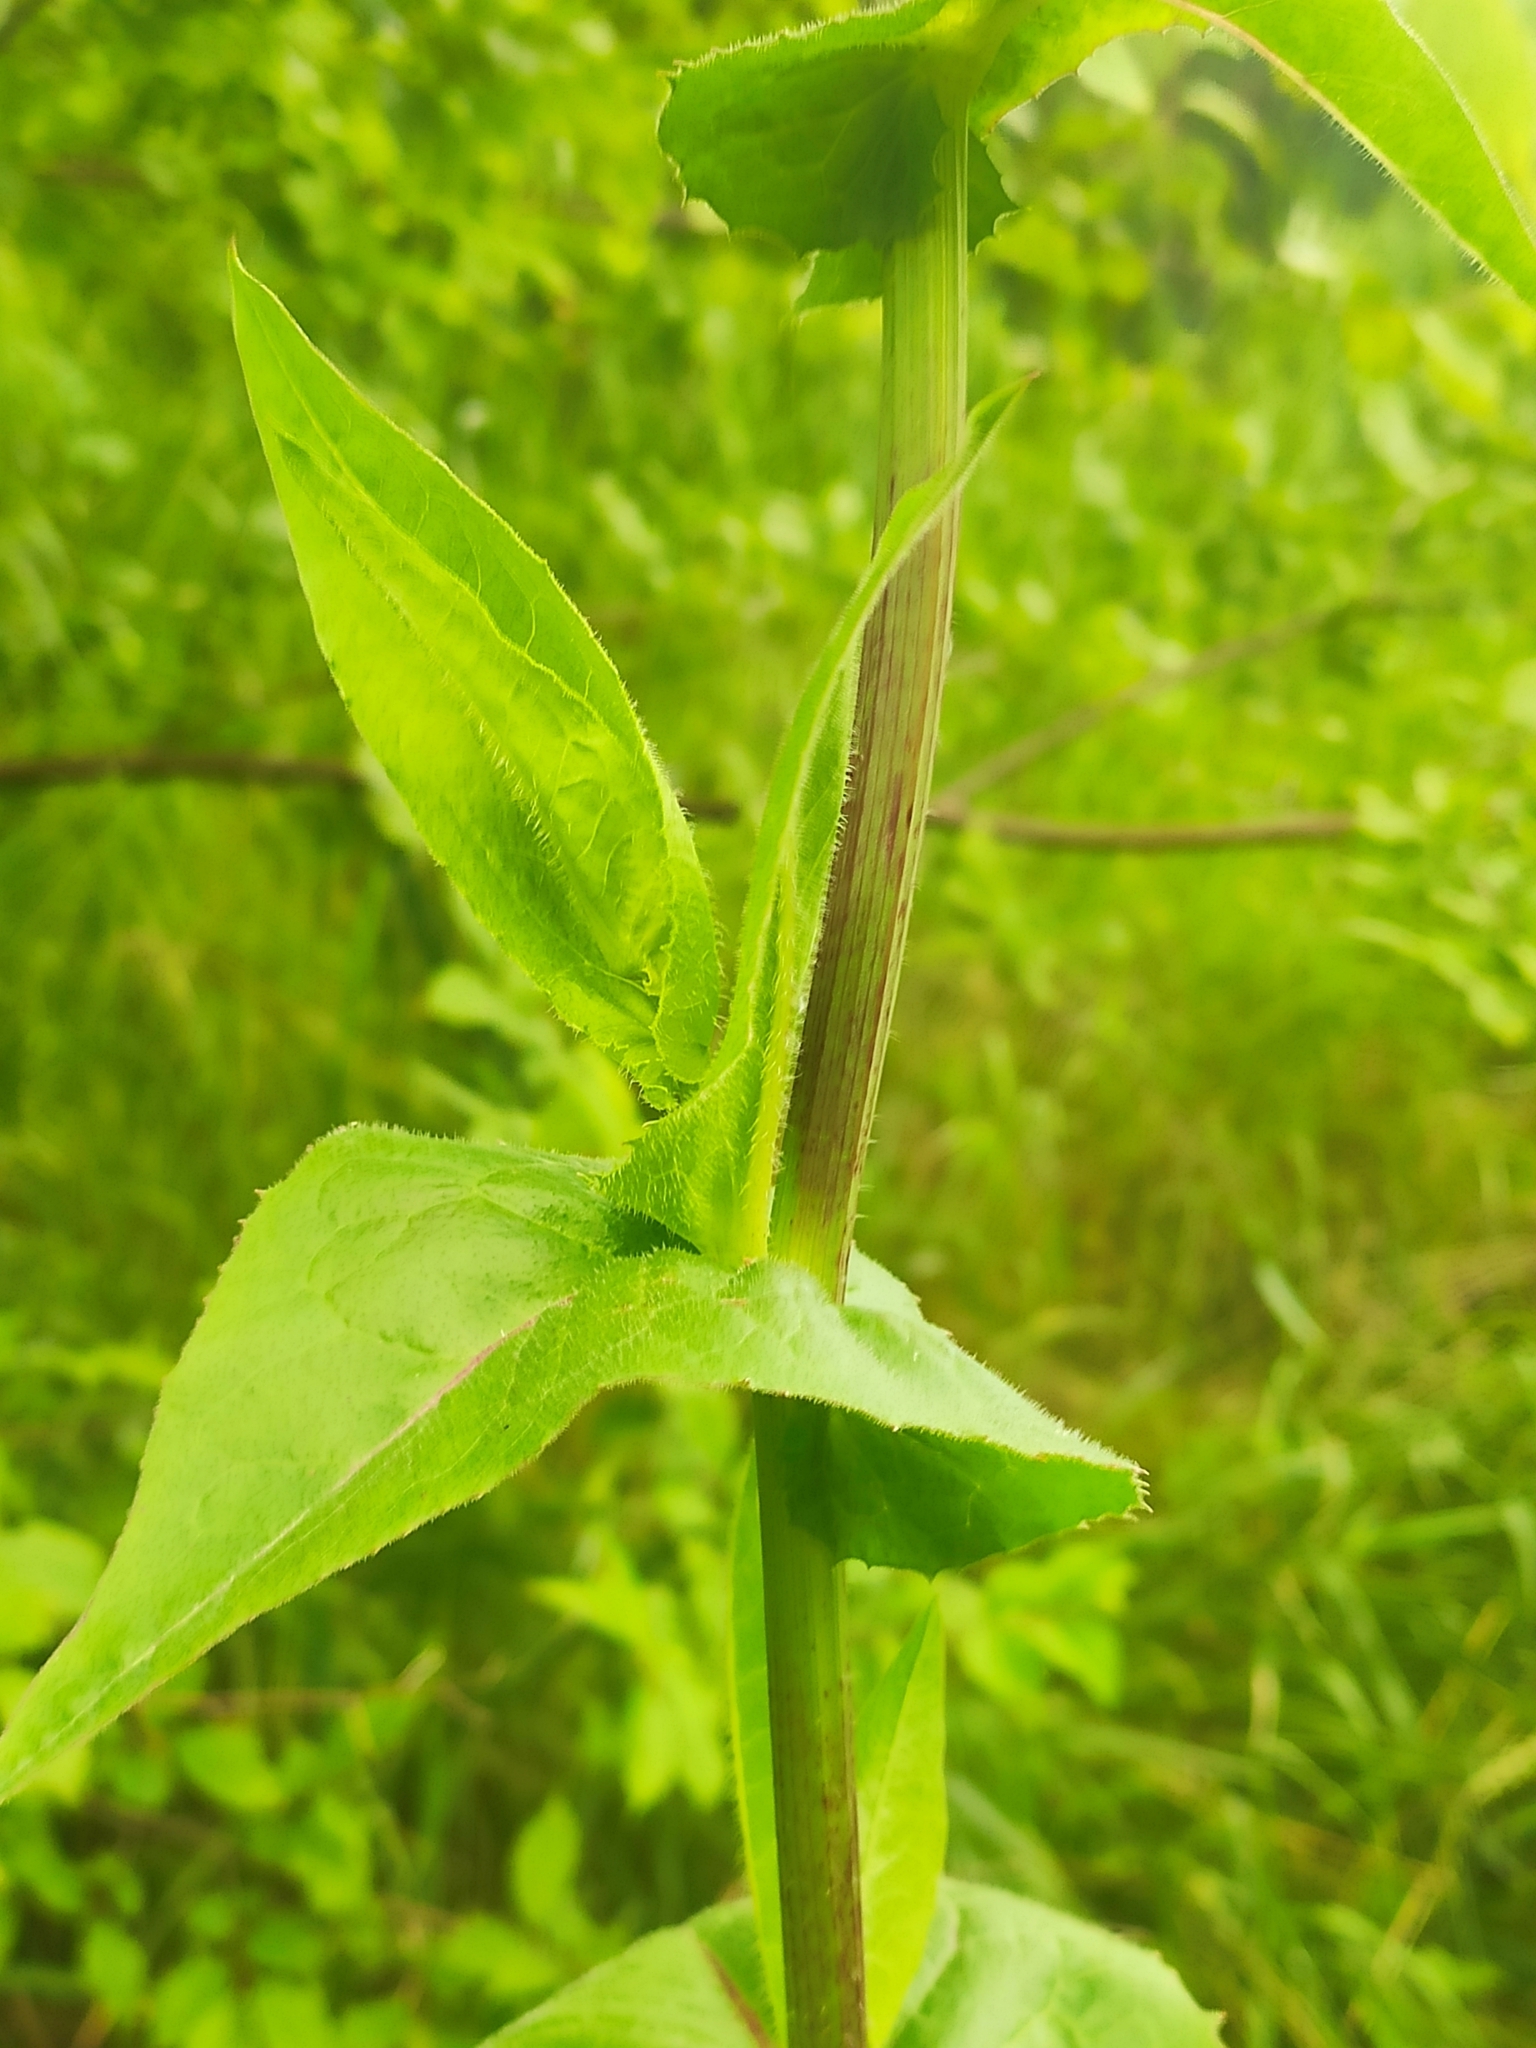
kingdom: Plantae
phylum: Tracheophyta
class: Magnoliopsida
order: Asterales
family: Asteraceae
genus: Inula
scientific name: Inula helenium
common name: Elecampane
